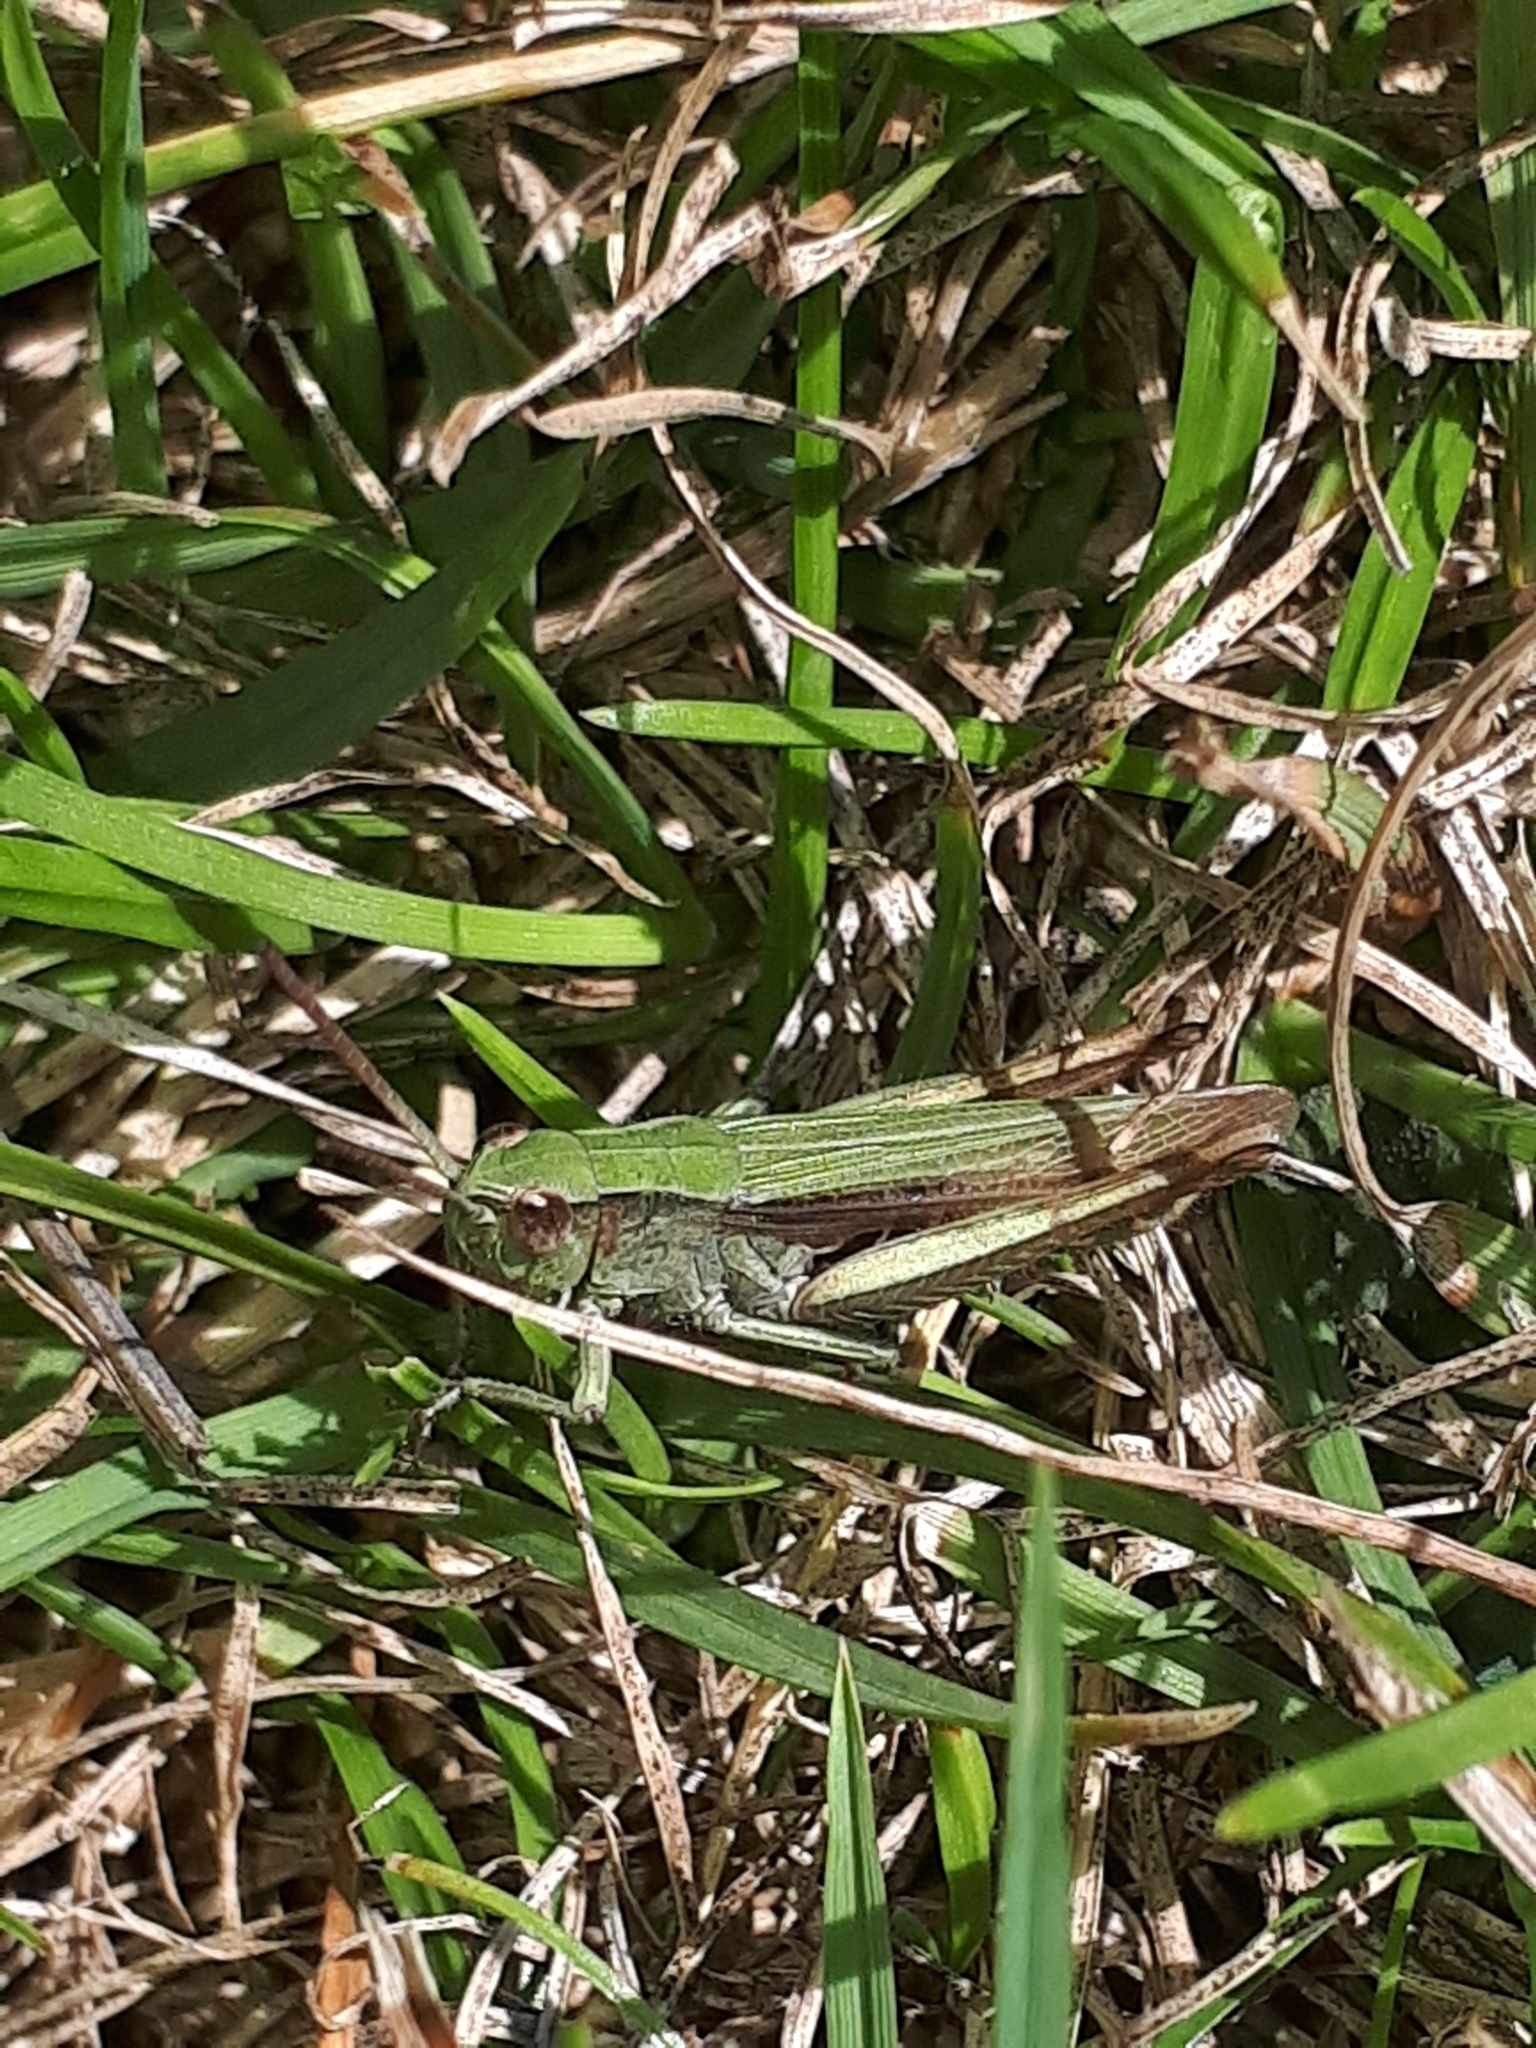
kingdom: Animalia
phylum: Arthropoda
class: Insecta
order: Orthoptera
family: Acrididae
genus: Chorthippus
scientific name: Chorthippus dorsatus
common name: Steppe grasshopper
